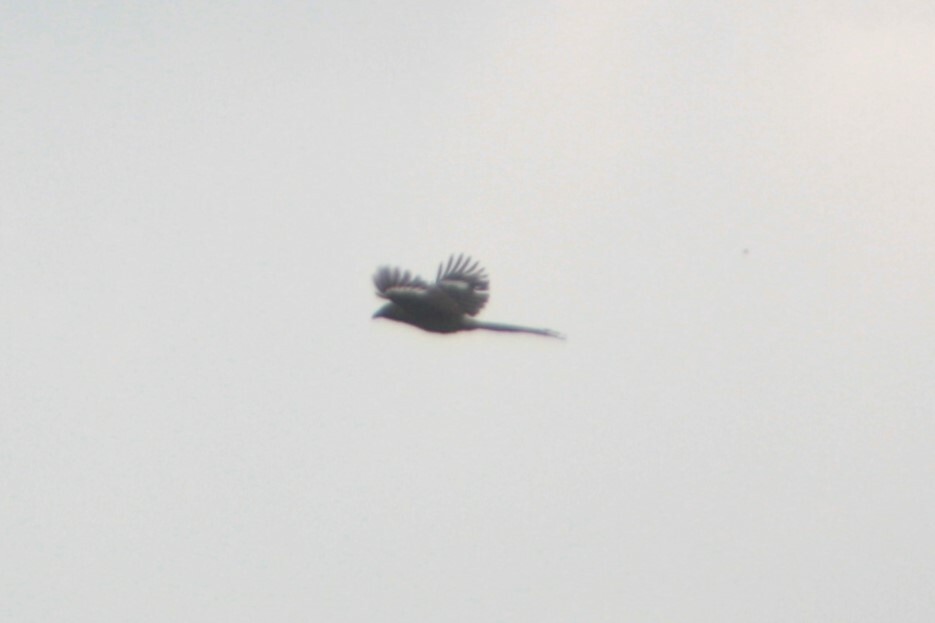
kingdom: Animalia
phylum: Chordata
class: Aves
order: Passeriformes
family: Corvidae
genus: Dendrocitta
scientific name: Dendrocitta formosae
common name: Grey treepie
